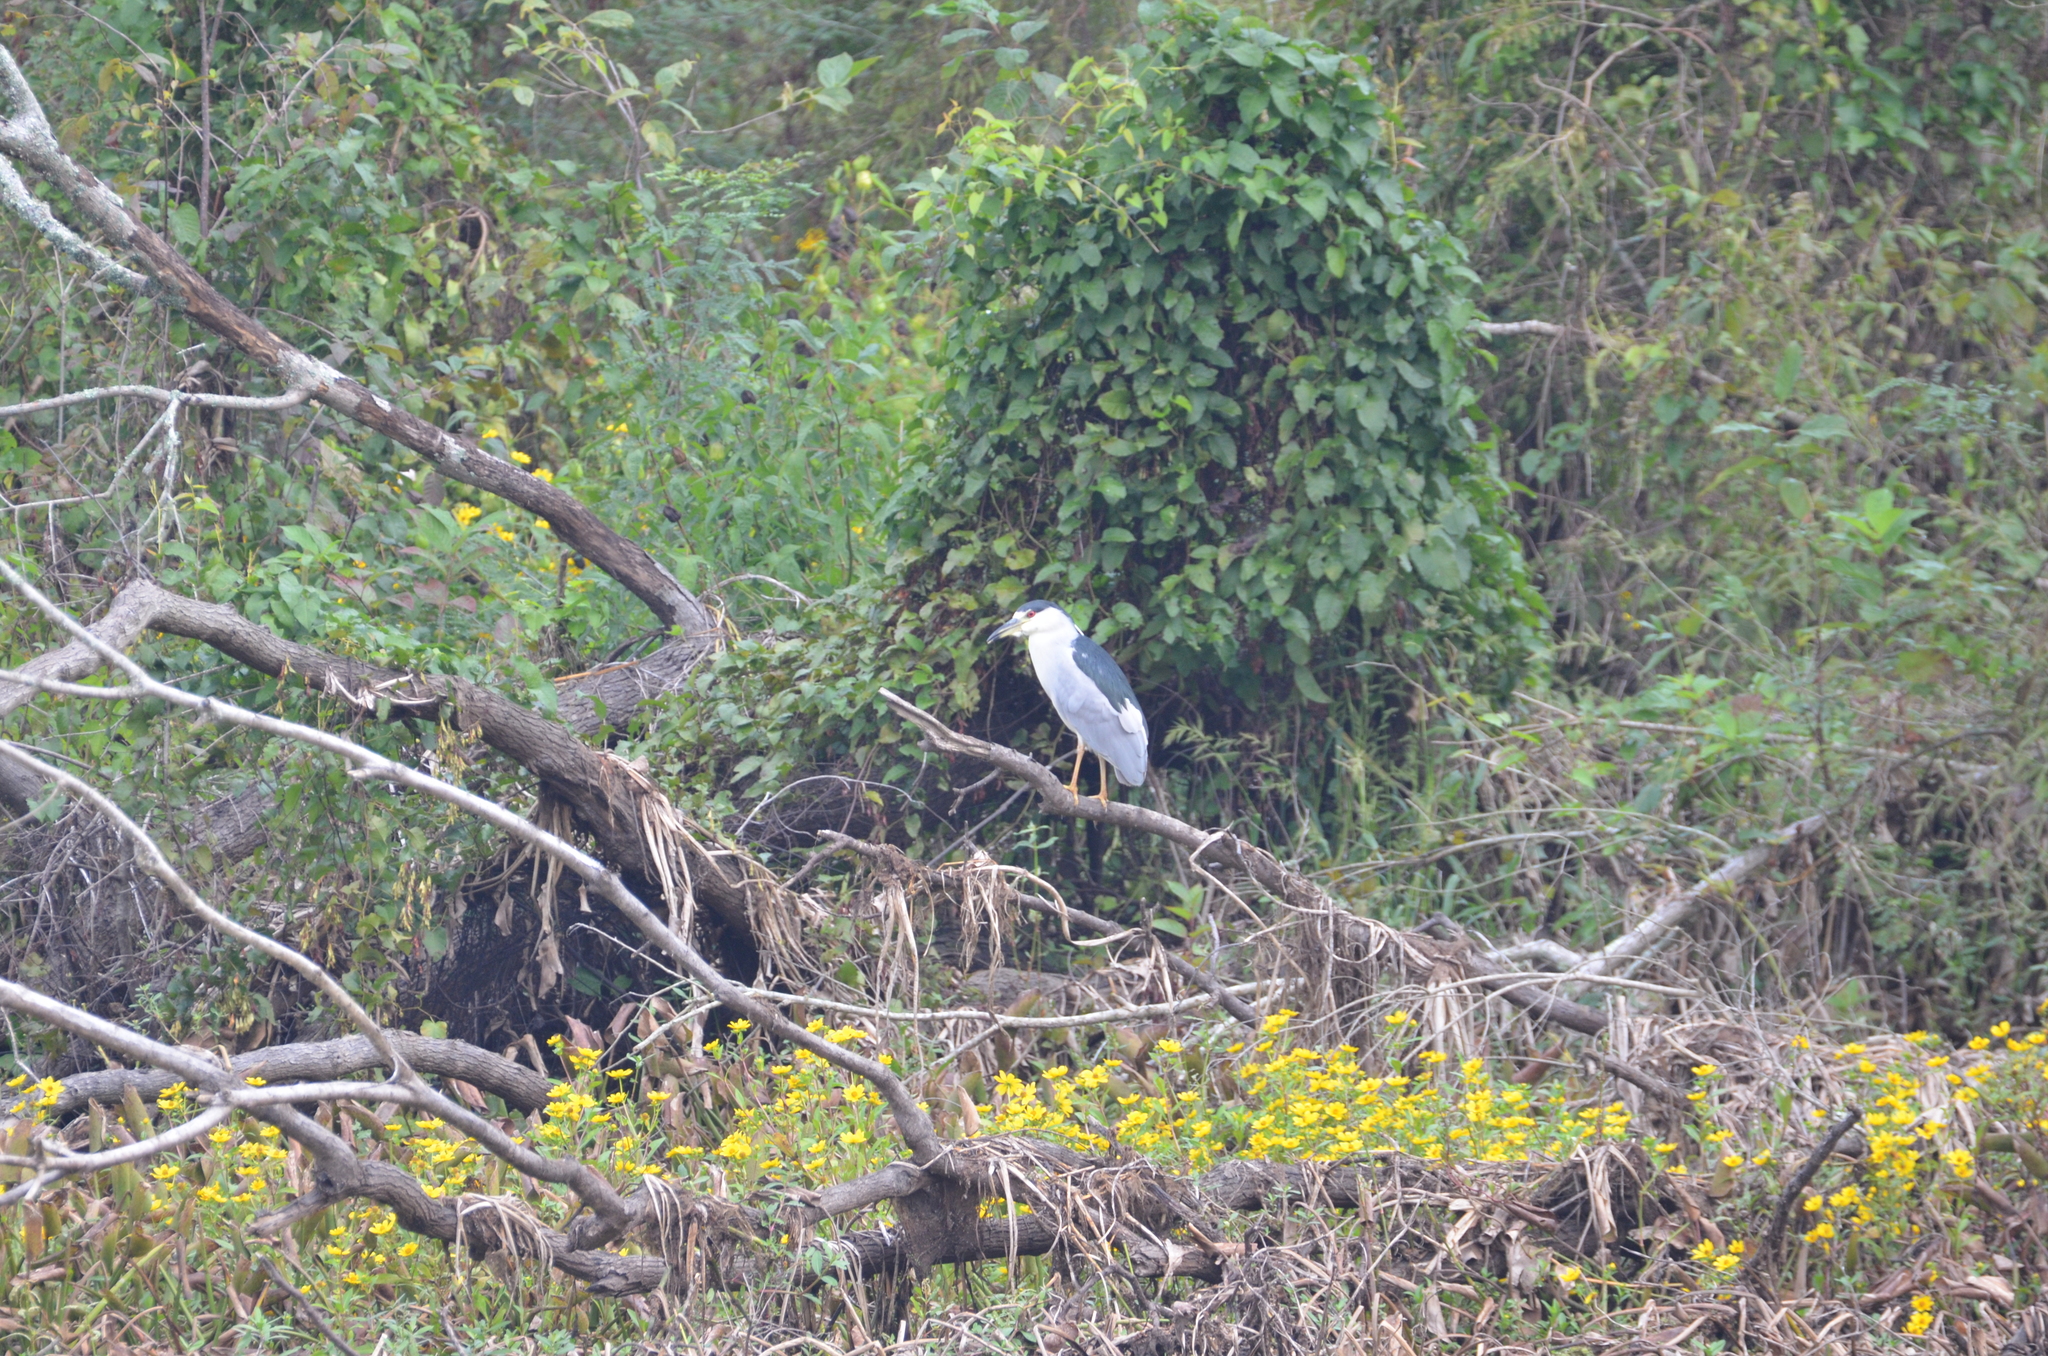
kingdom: Animalia
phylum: Chordata
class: Aves
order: Pelecaniformes
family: Ardeidae
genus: Nycticorax
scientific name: Nycticorax nycticorax
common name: Black-crowned night heron
